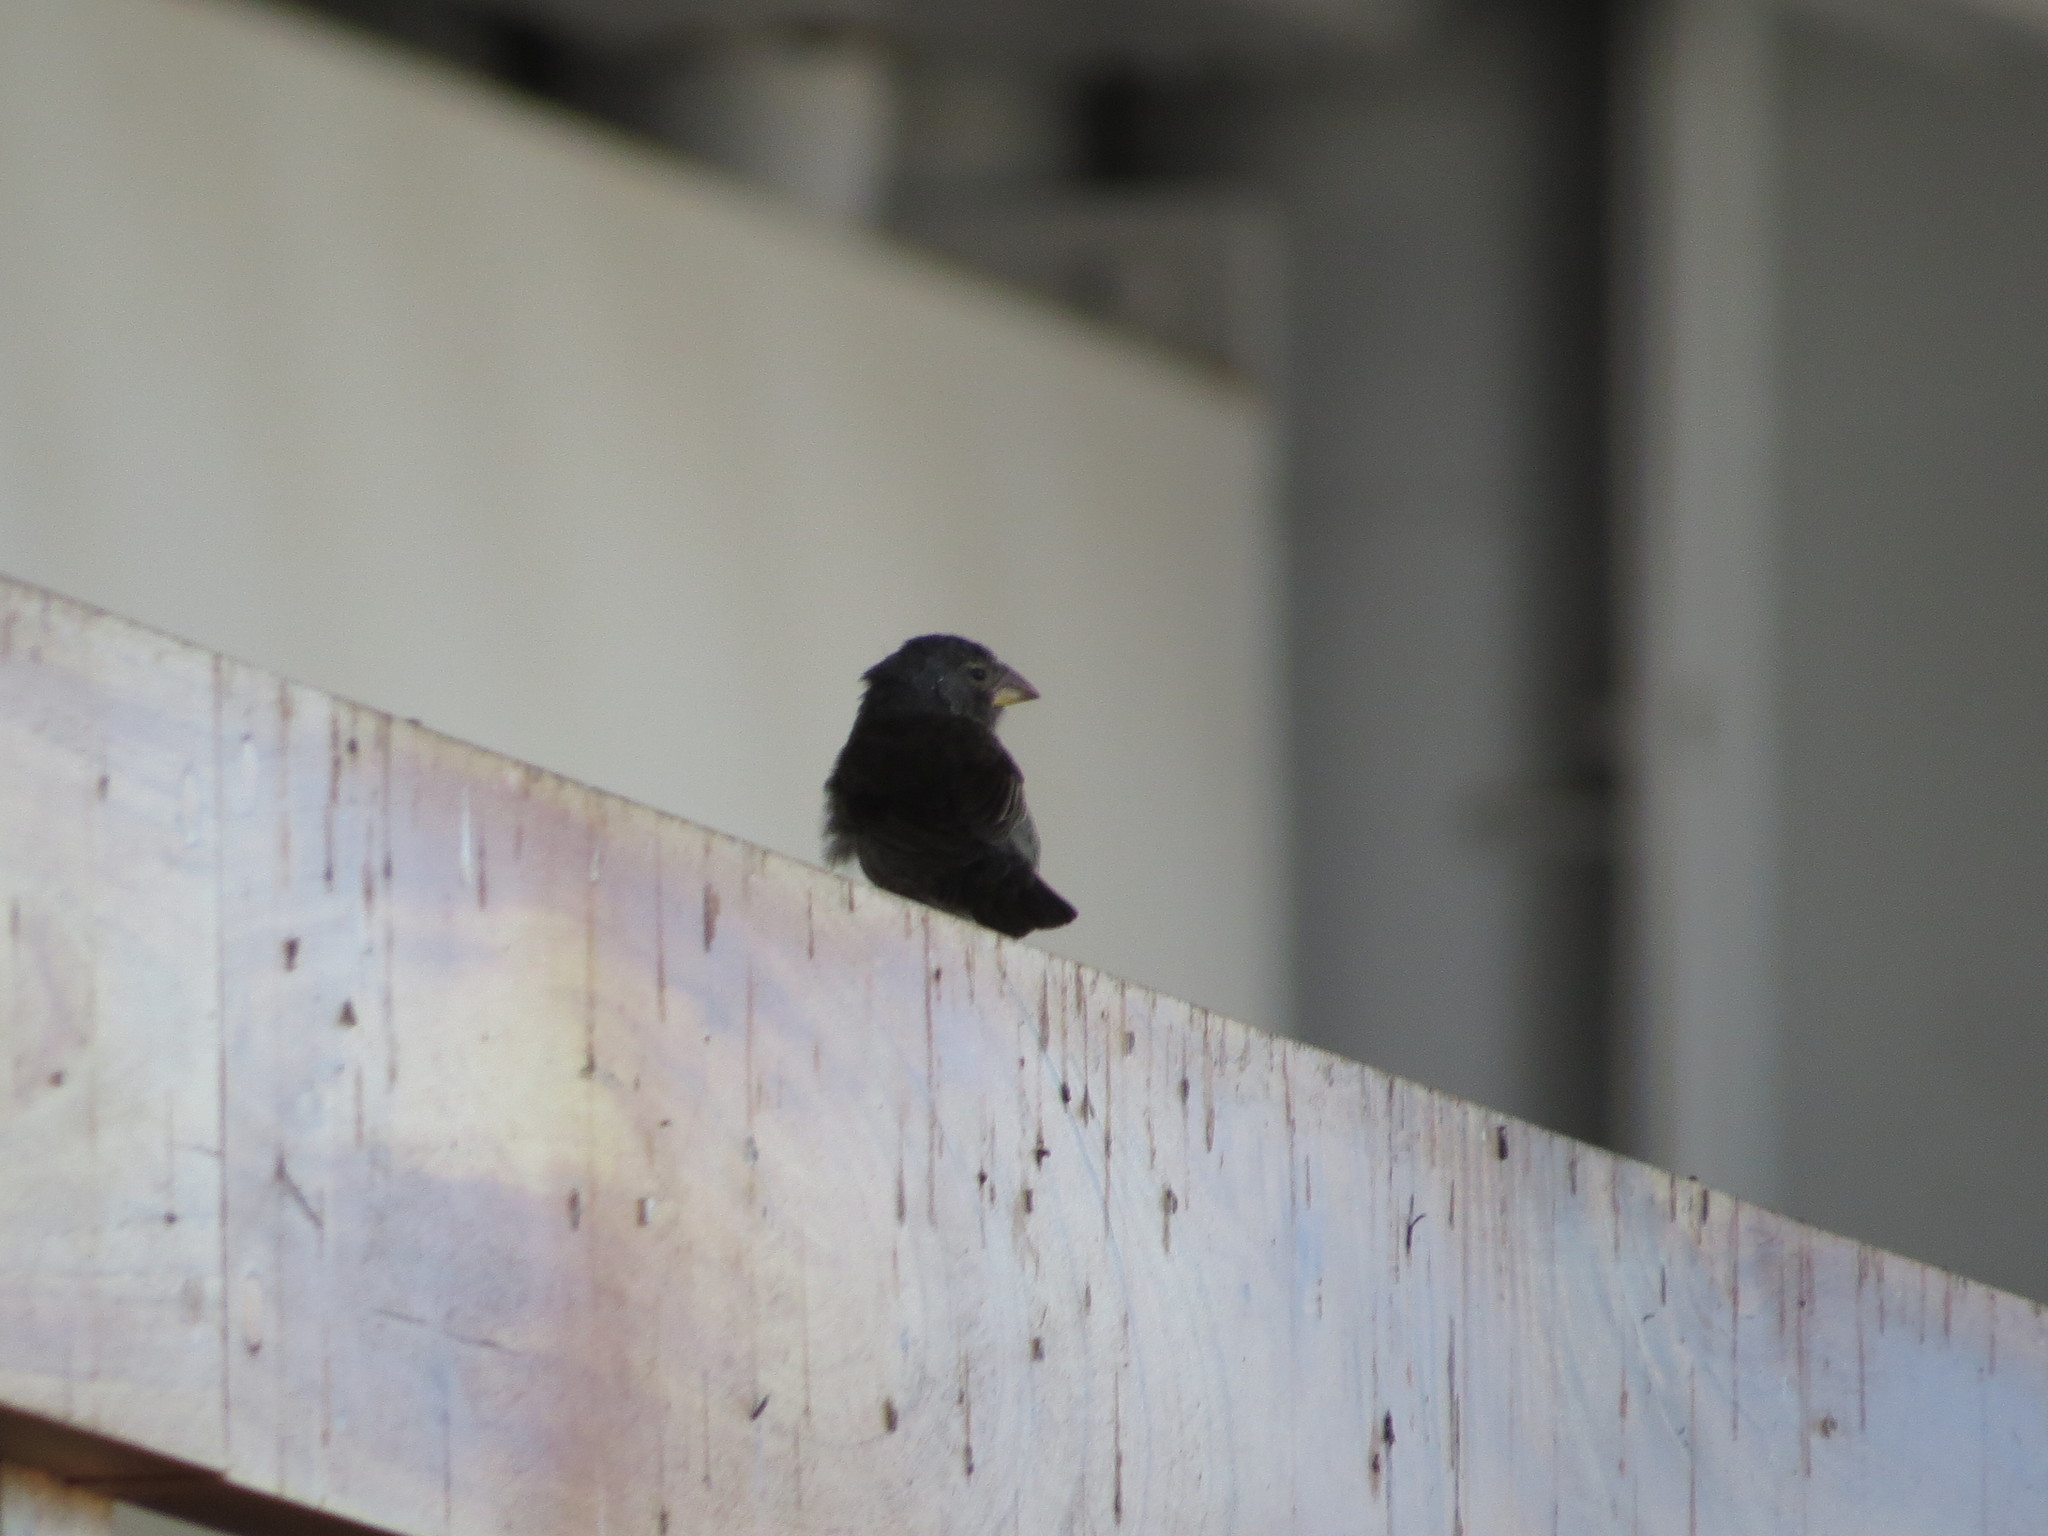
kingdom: Animalia
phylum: Chordata
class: Aves
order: Passeriformes
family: Thraupidae
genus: Geospiza
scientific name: Geospiza fortis
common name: Medium ground finch
